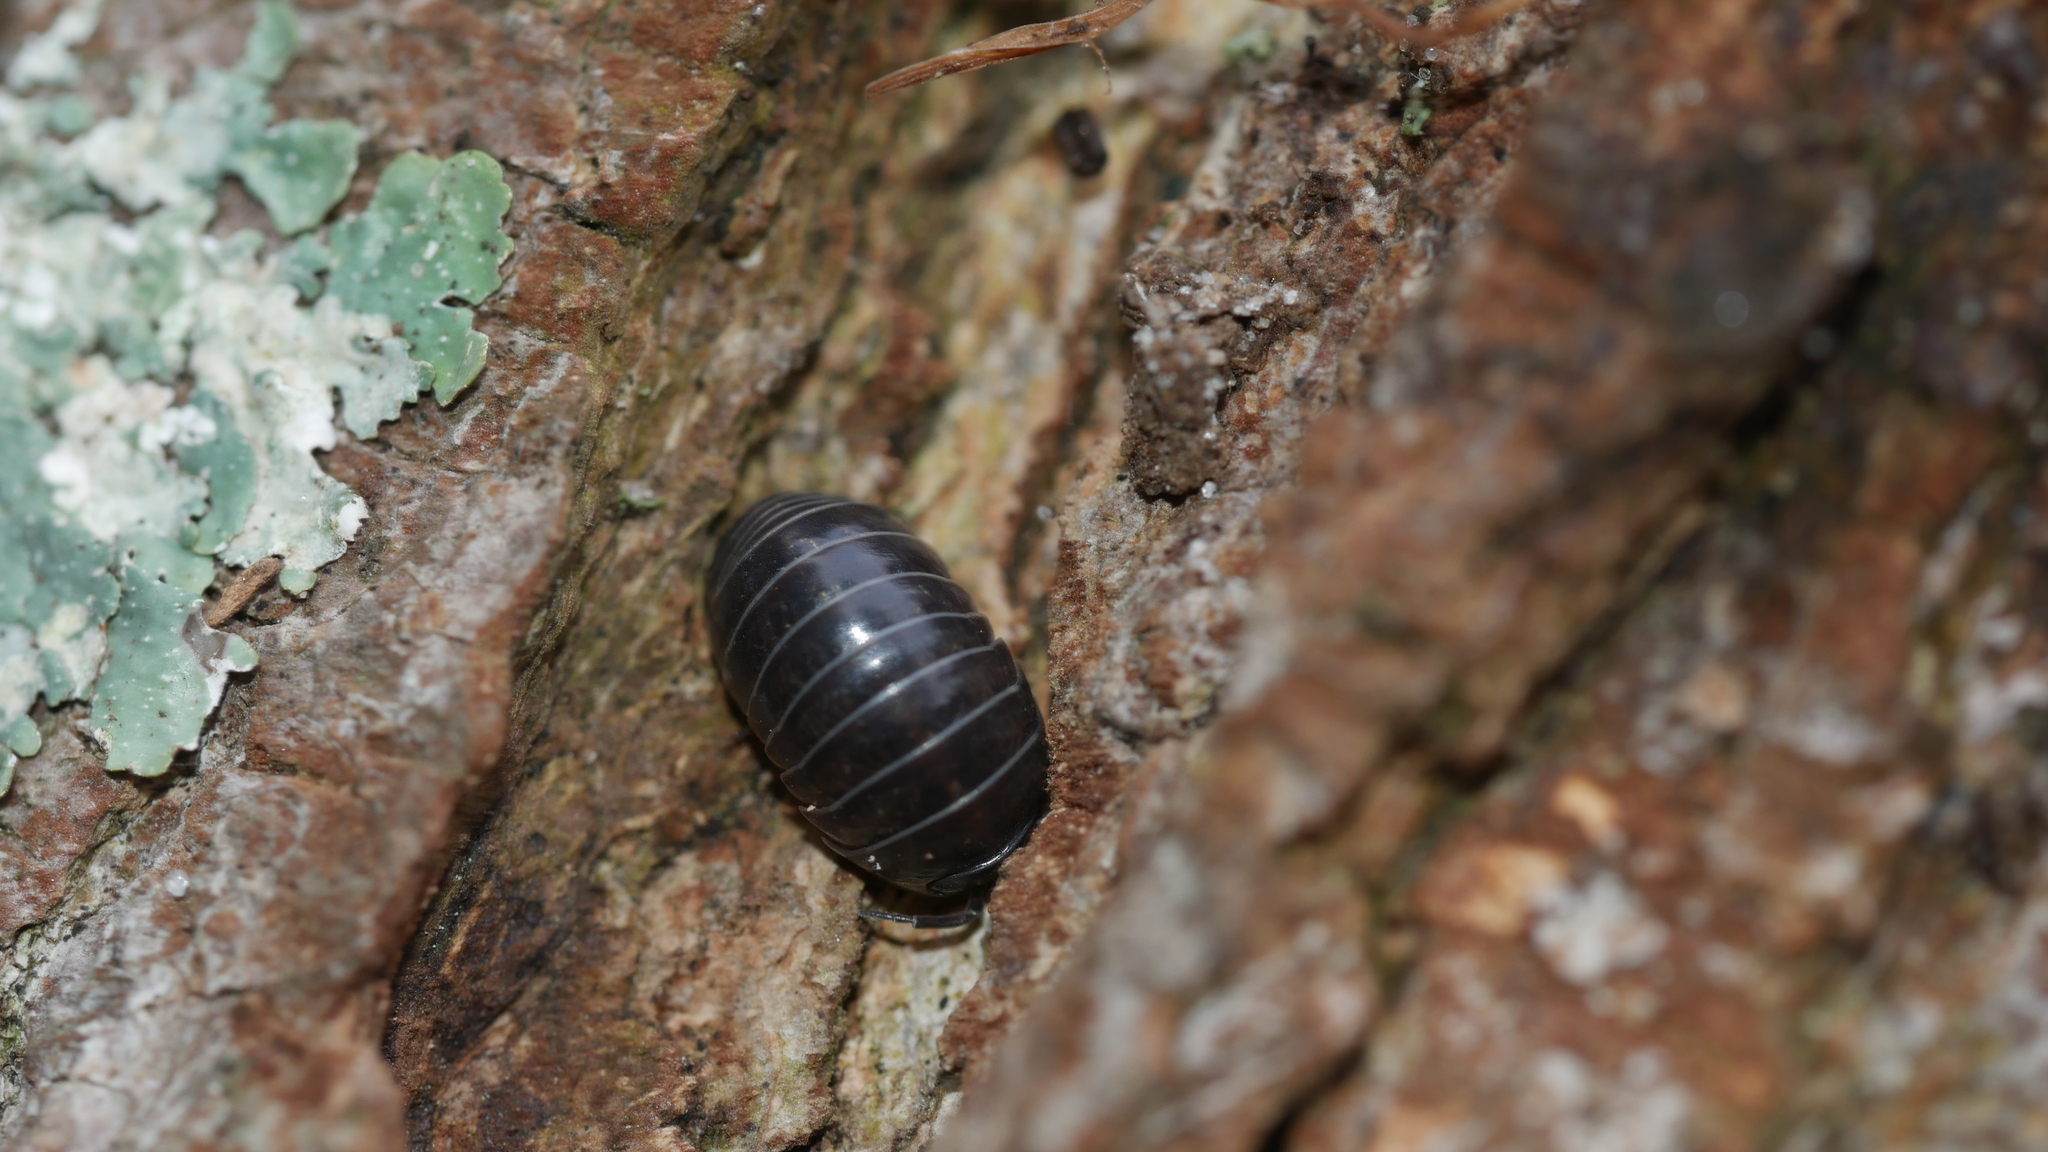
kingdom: Animalia
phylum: Arthropoda
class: Malacostraca
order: Isopoda
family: Armadillidiidae
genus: Armadillidium
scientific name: Armadillidium vulgare
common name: Common pill woodlouse
